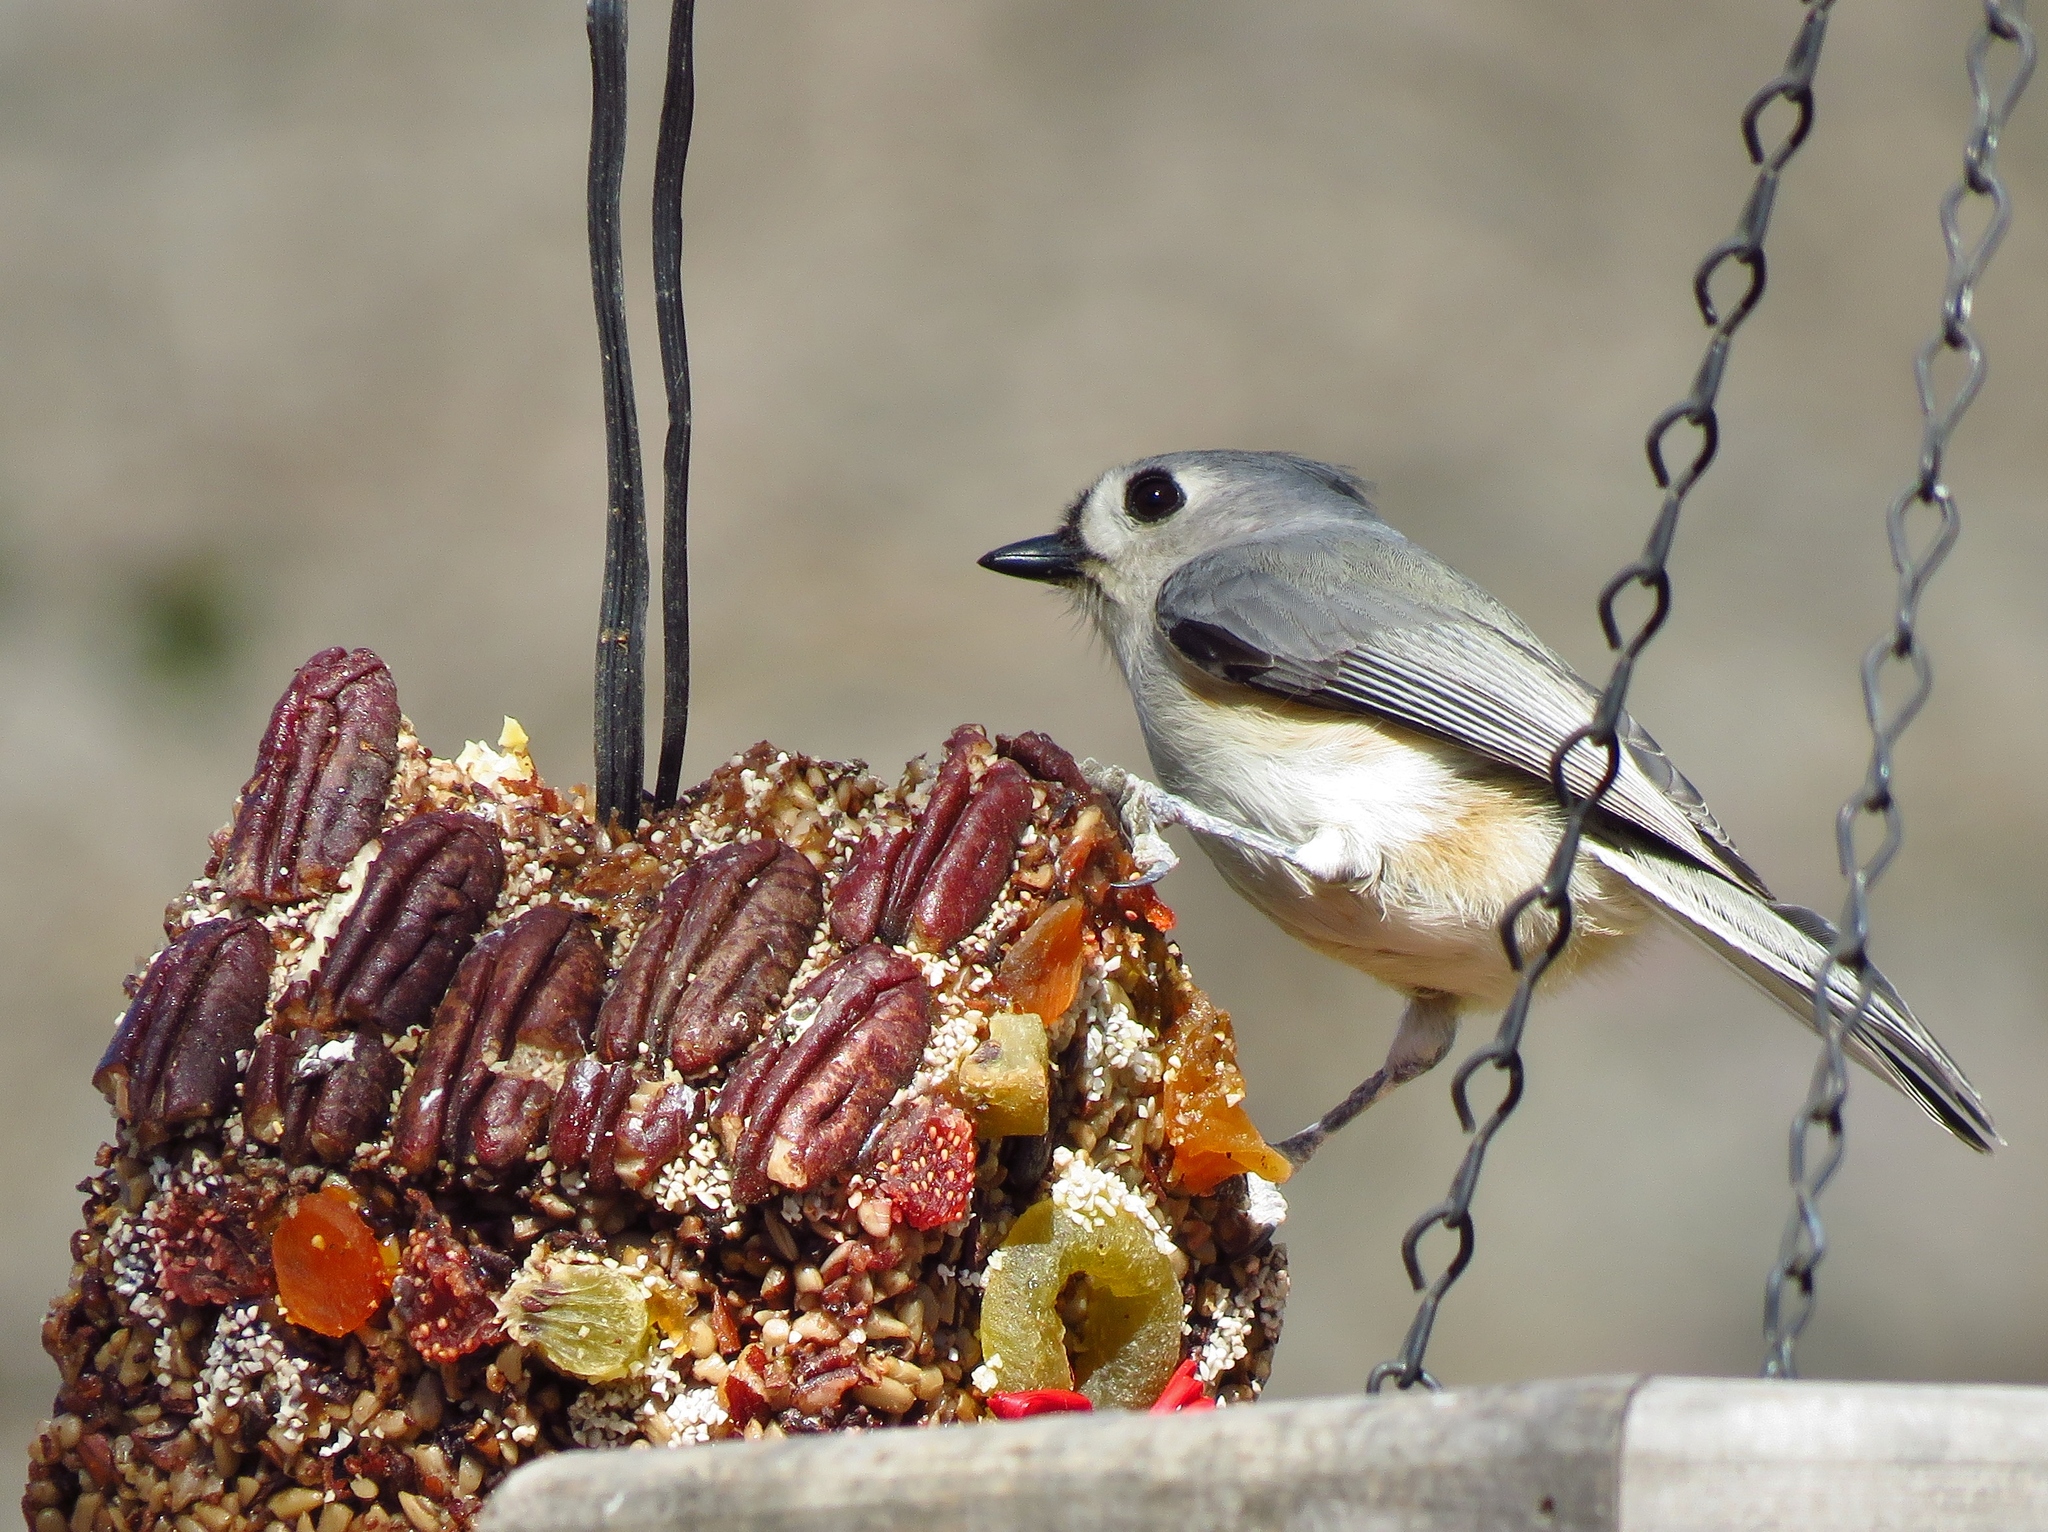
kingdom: Animalia
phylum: Chordata
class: Aves
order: Passeriformes
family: Paridae
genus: Baeolophus
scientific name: Baeolophus bicolor
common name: Tufted titmouse
